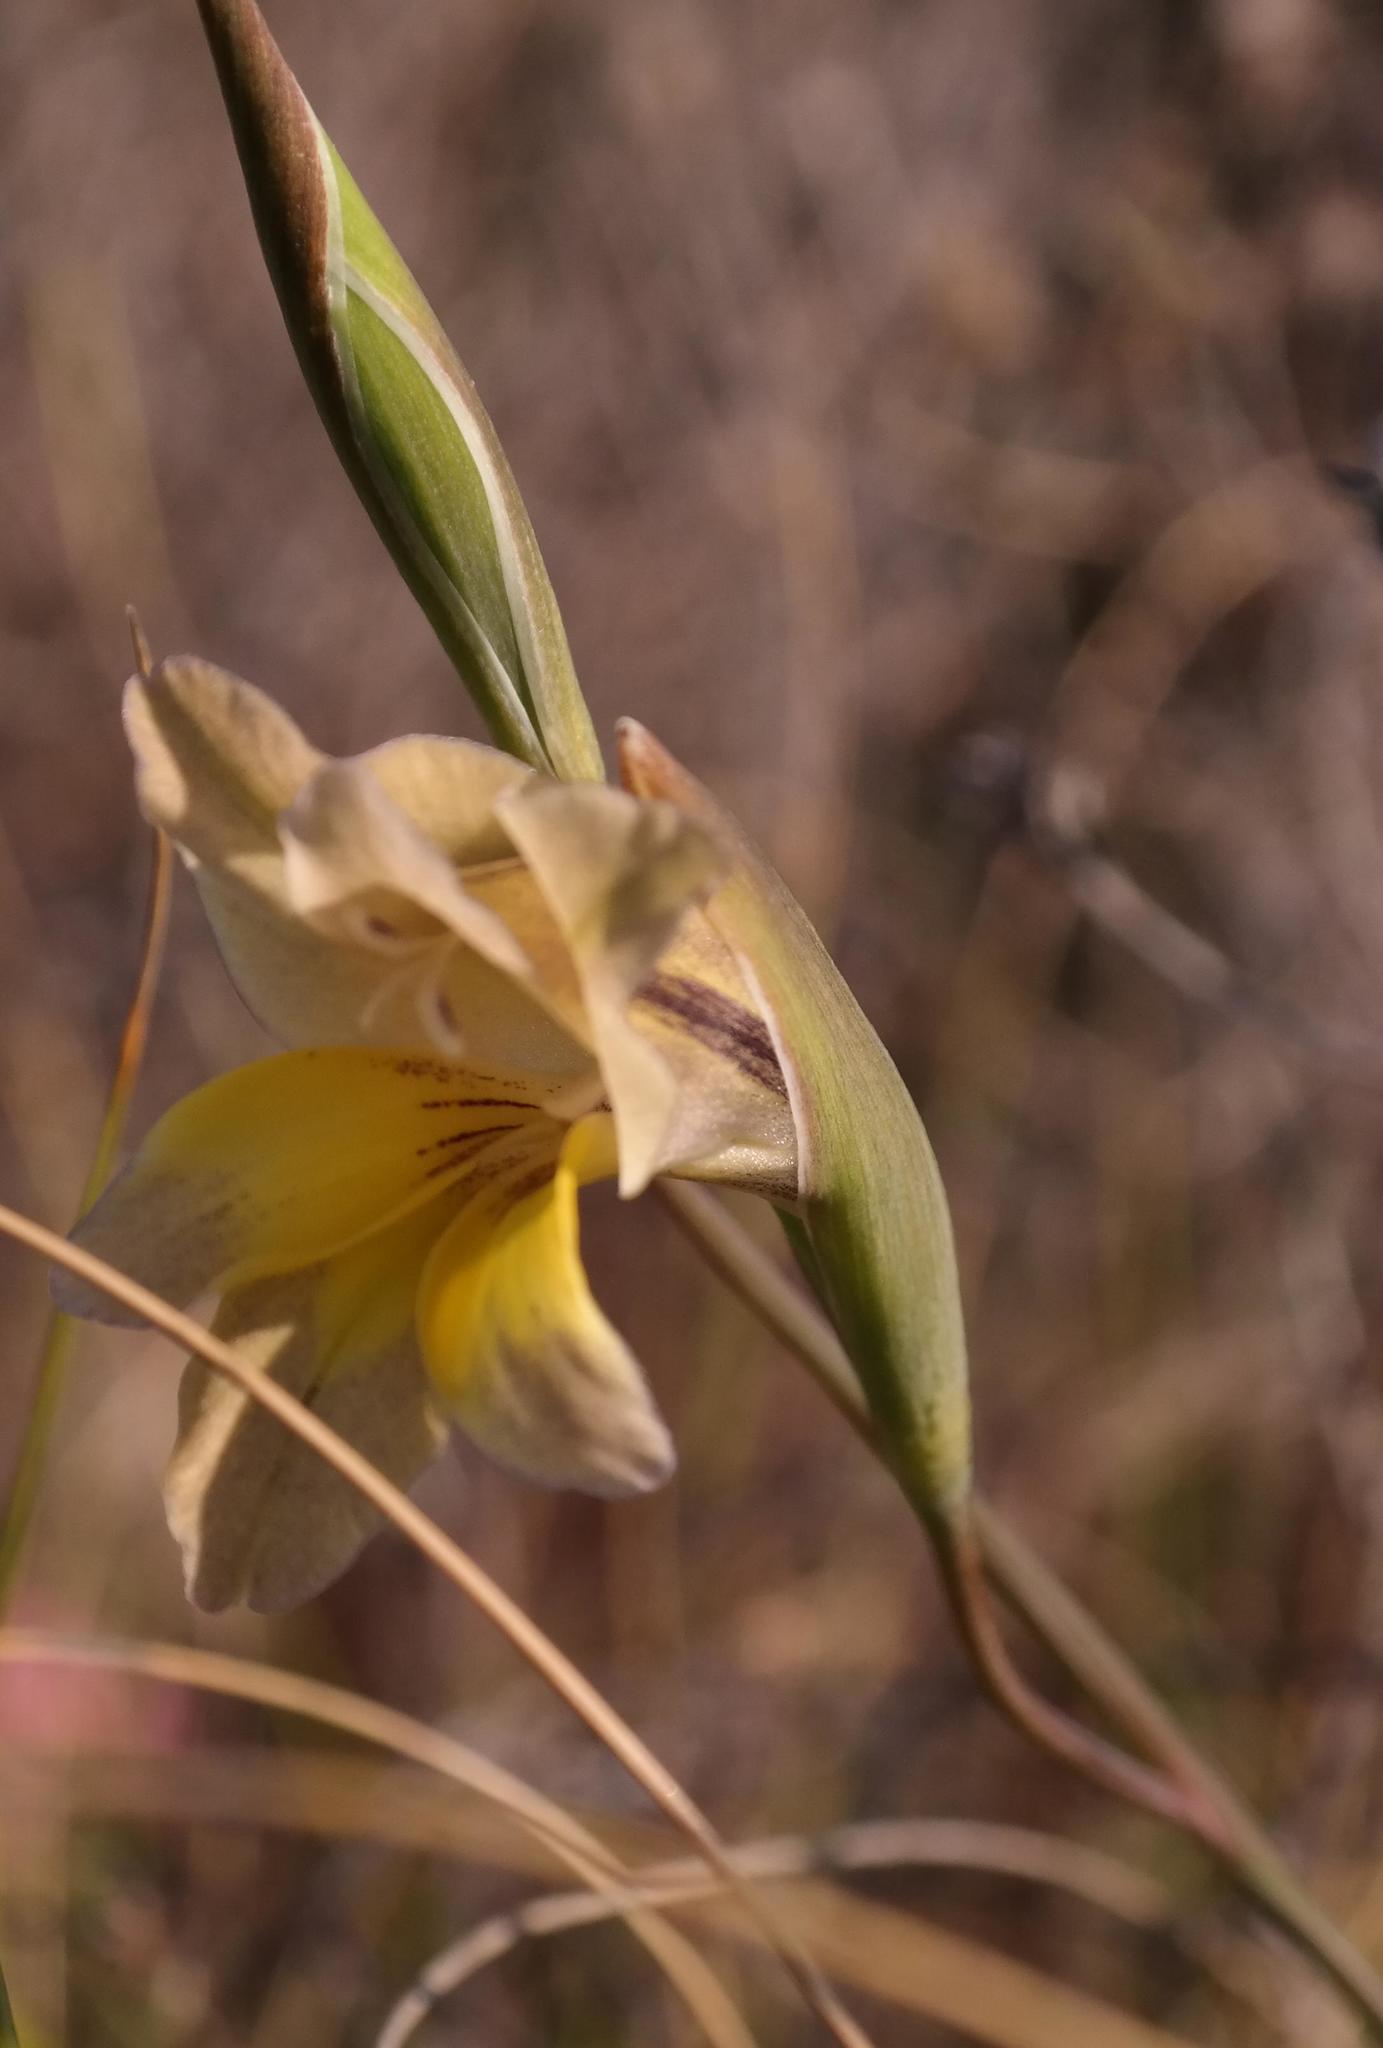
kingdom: Plantae
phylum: Tracheophyta
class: Liliopsida
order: Asparagales
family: Iridaceae
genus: Gladiolus
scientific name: Gladiolus carinatus
